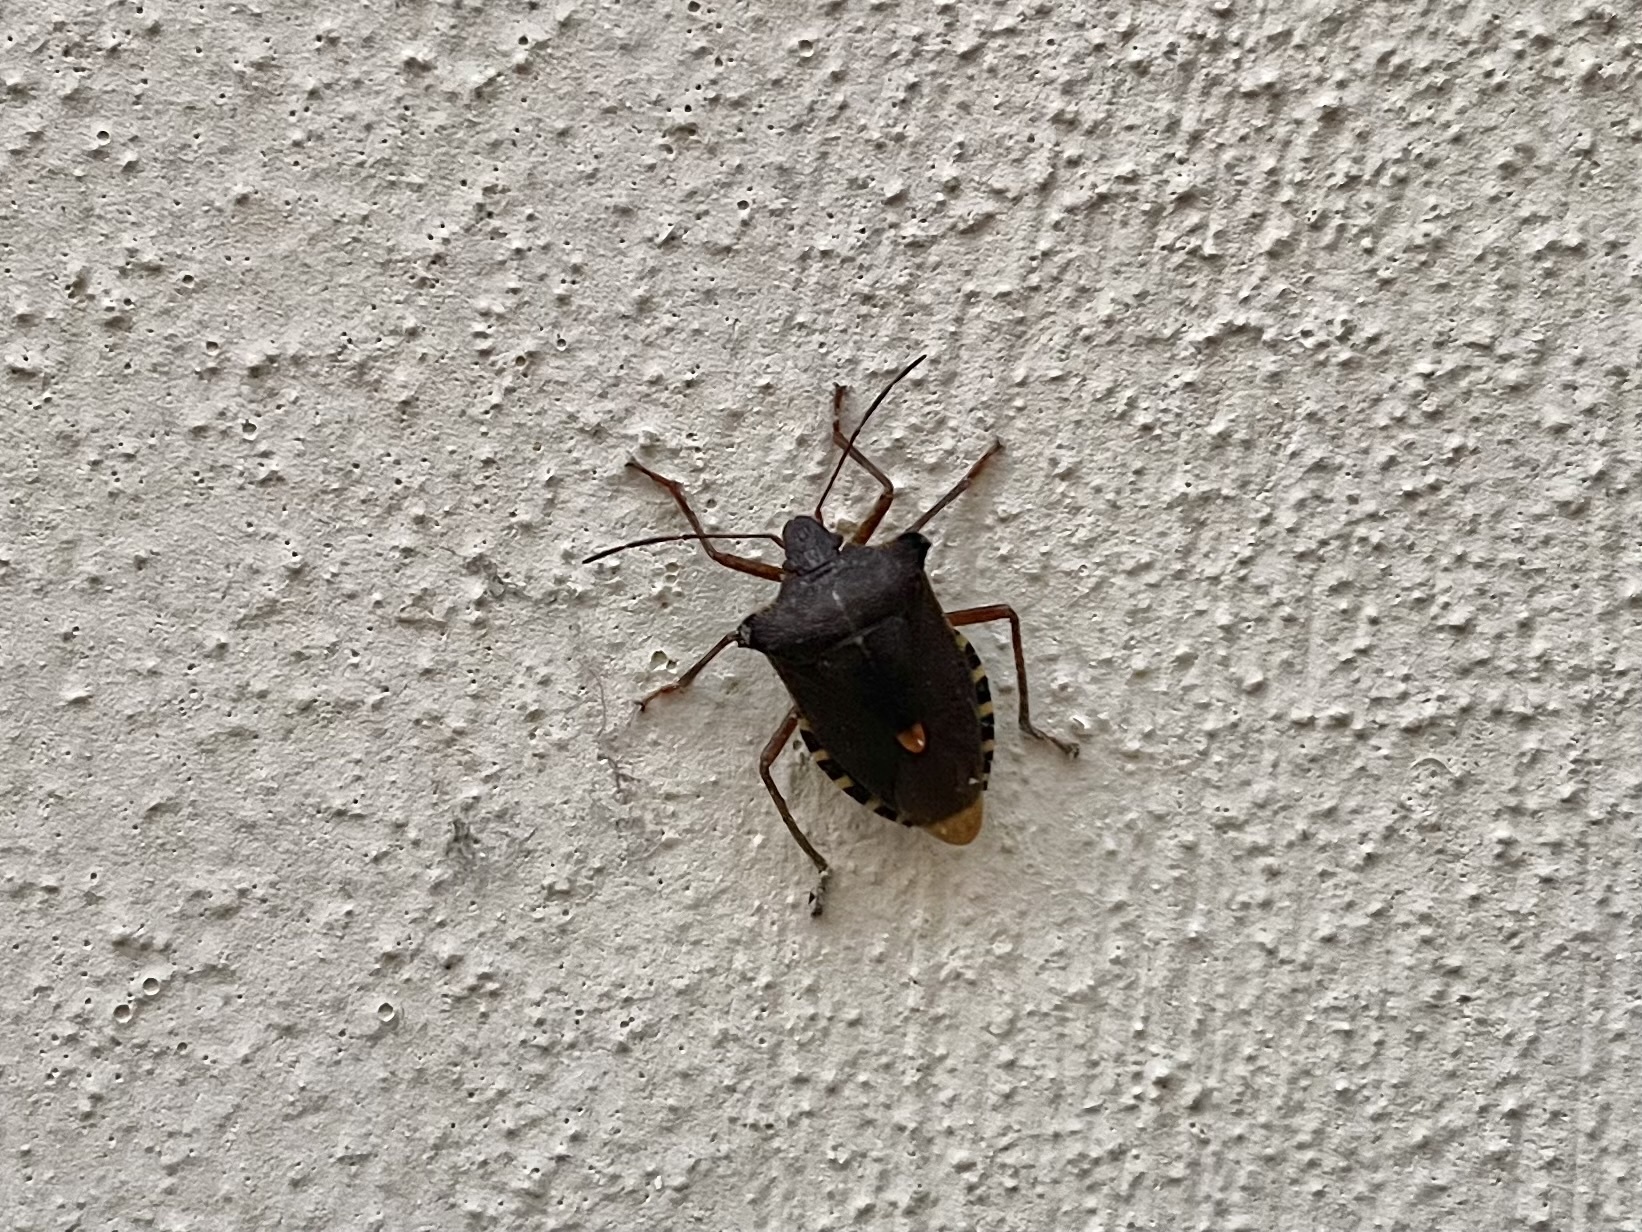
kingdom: Animalia
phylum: Arthropoda
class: Insecta
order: Hemiptera
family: Pentatomidae
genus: Pentatoma
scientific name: Pentatoma rufipes
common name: Forest bug
